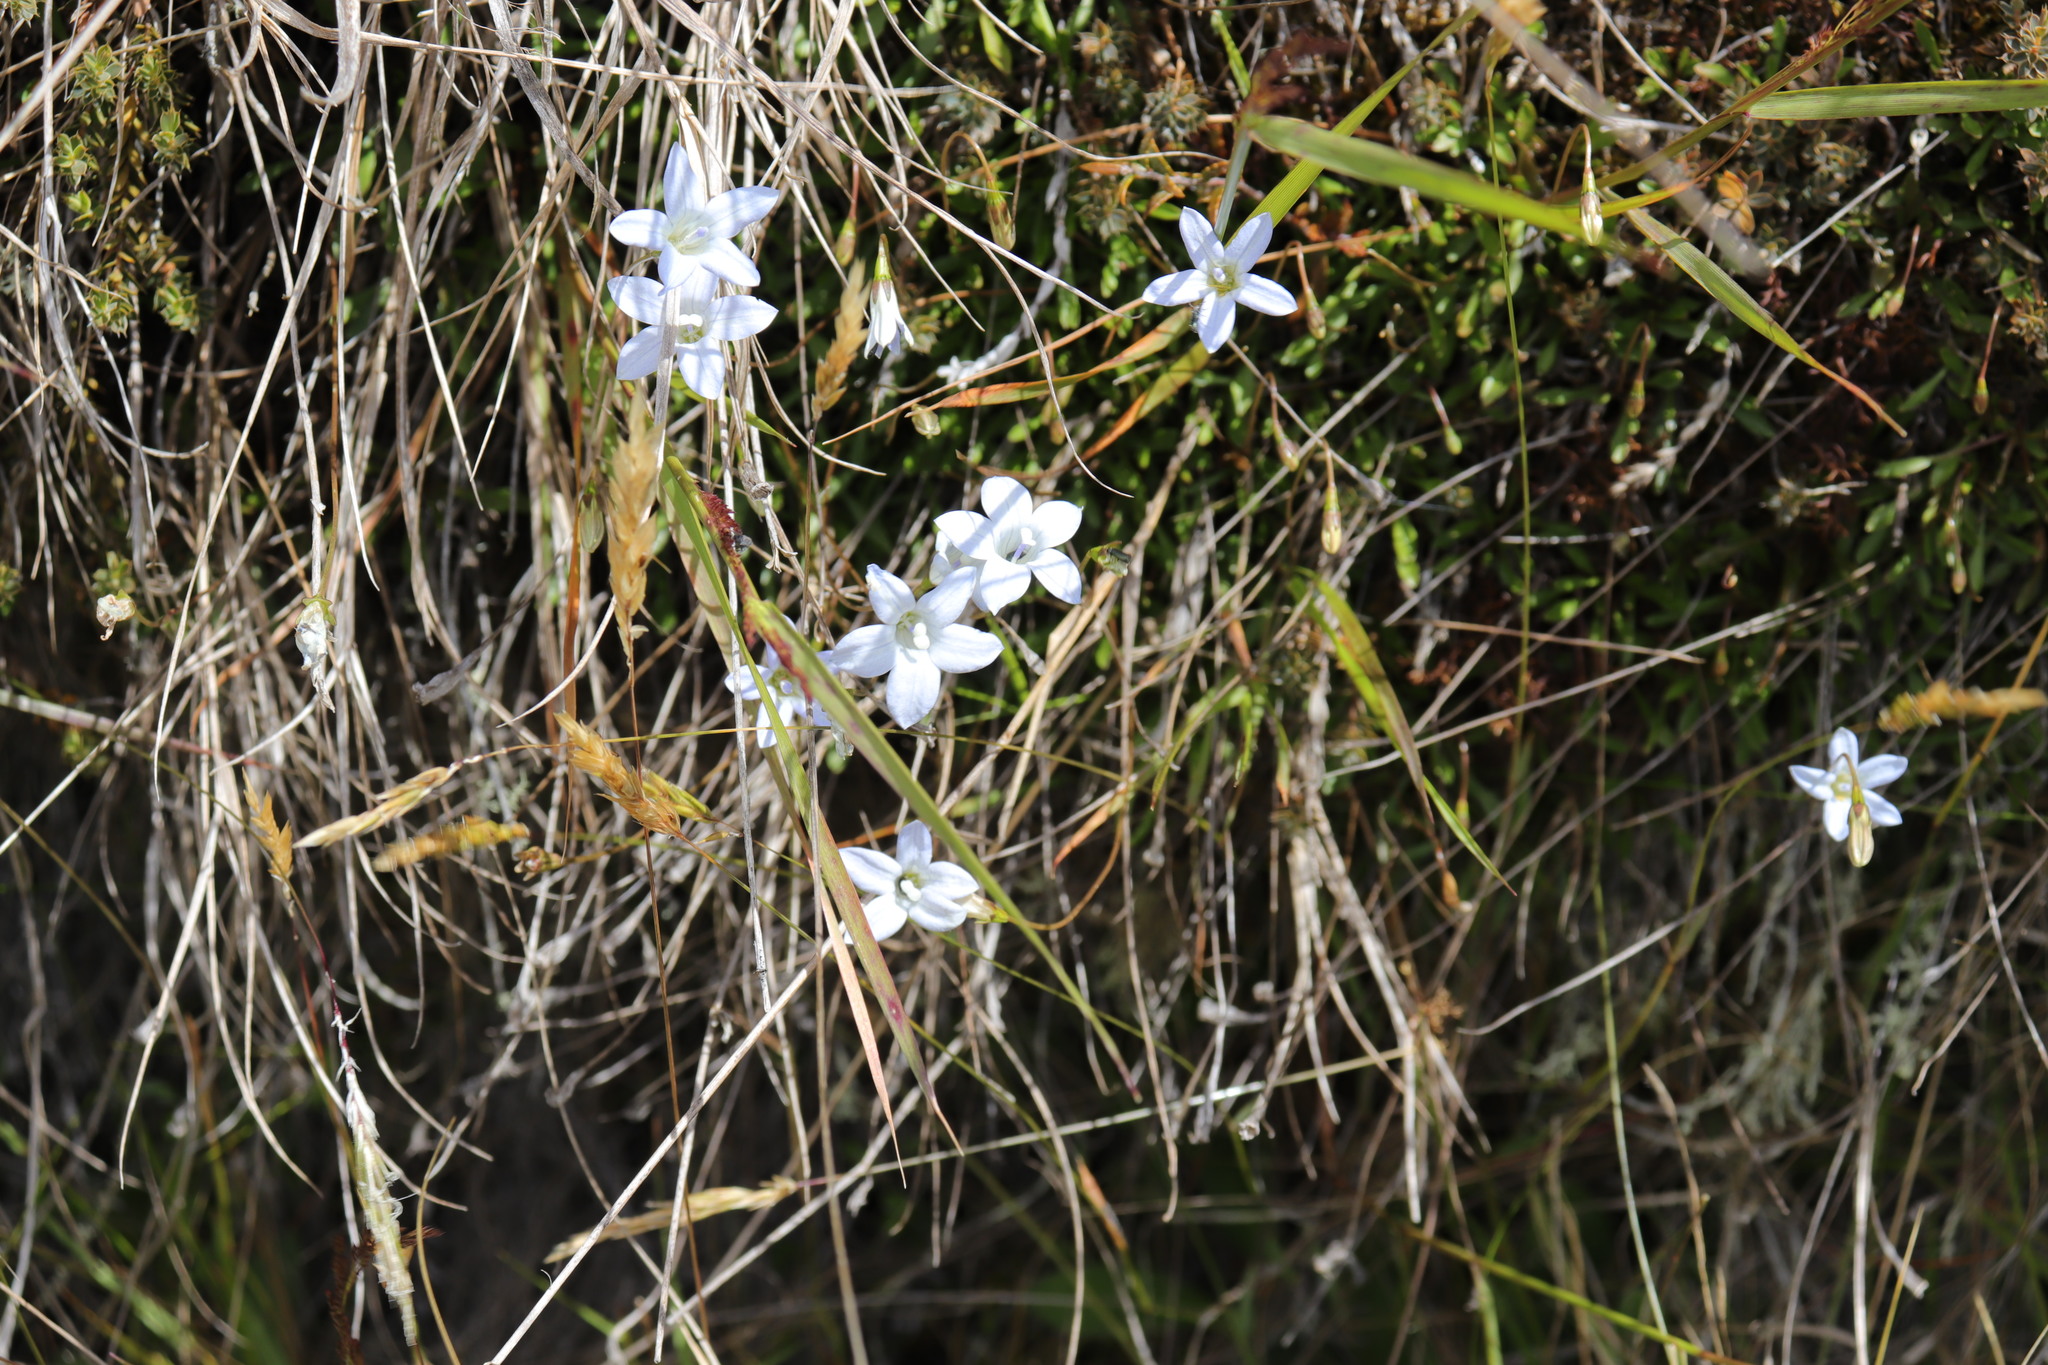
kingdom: Plantae
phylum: Tracheophyta
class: Magnoliopsida
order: Asterales
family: Campanulaceae
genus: Wahlenbergia
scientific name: Wahlenbergia albomarginata
